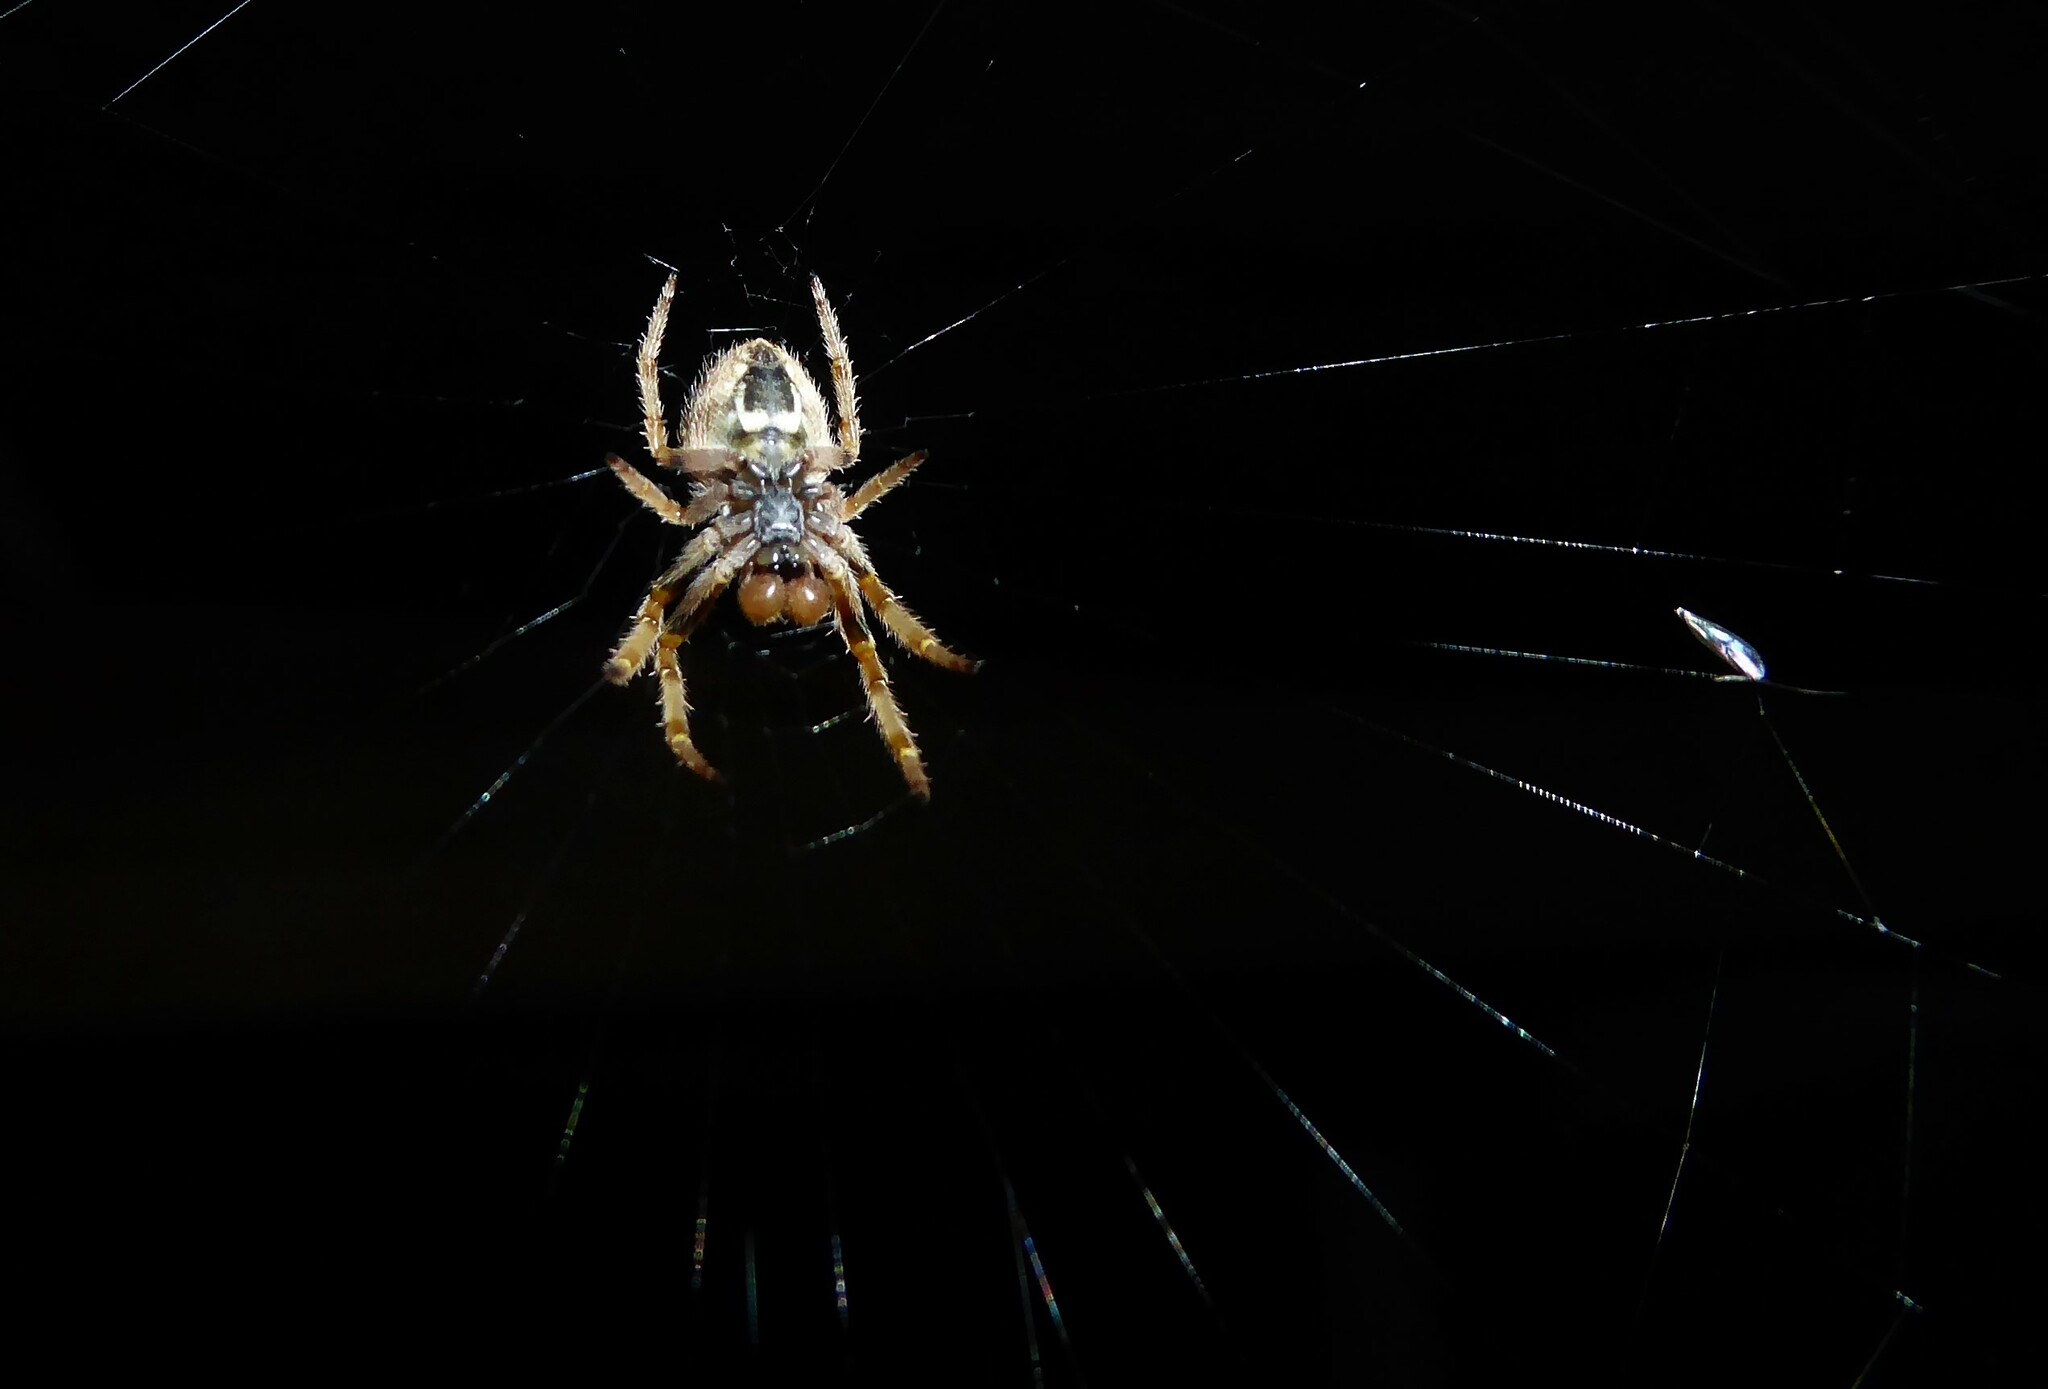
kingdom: Animalia
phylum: Arthropoda
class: Arachnida
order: Araneae
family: Araneidae
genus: Eriophora
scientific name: Eriophora pustulosa
